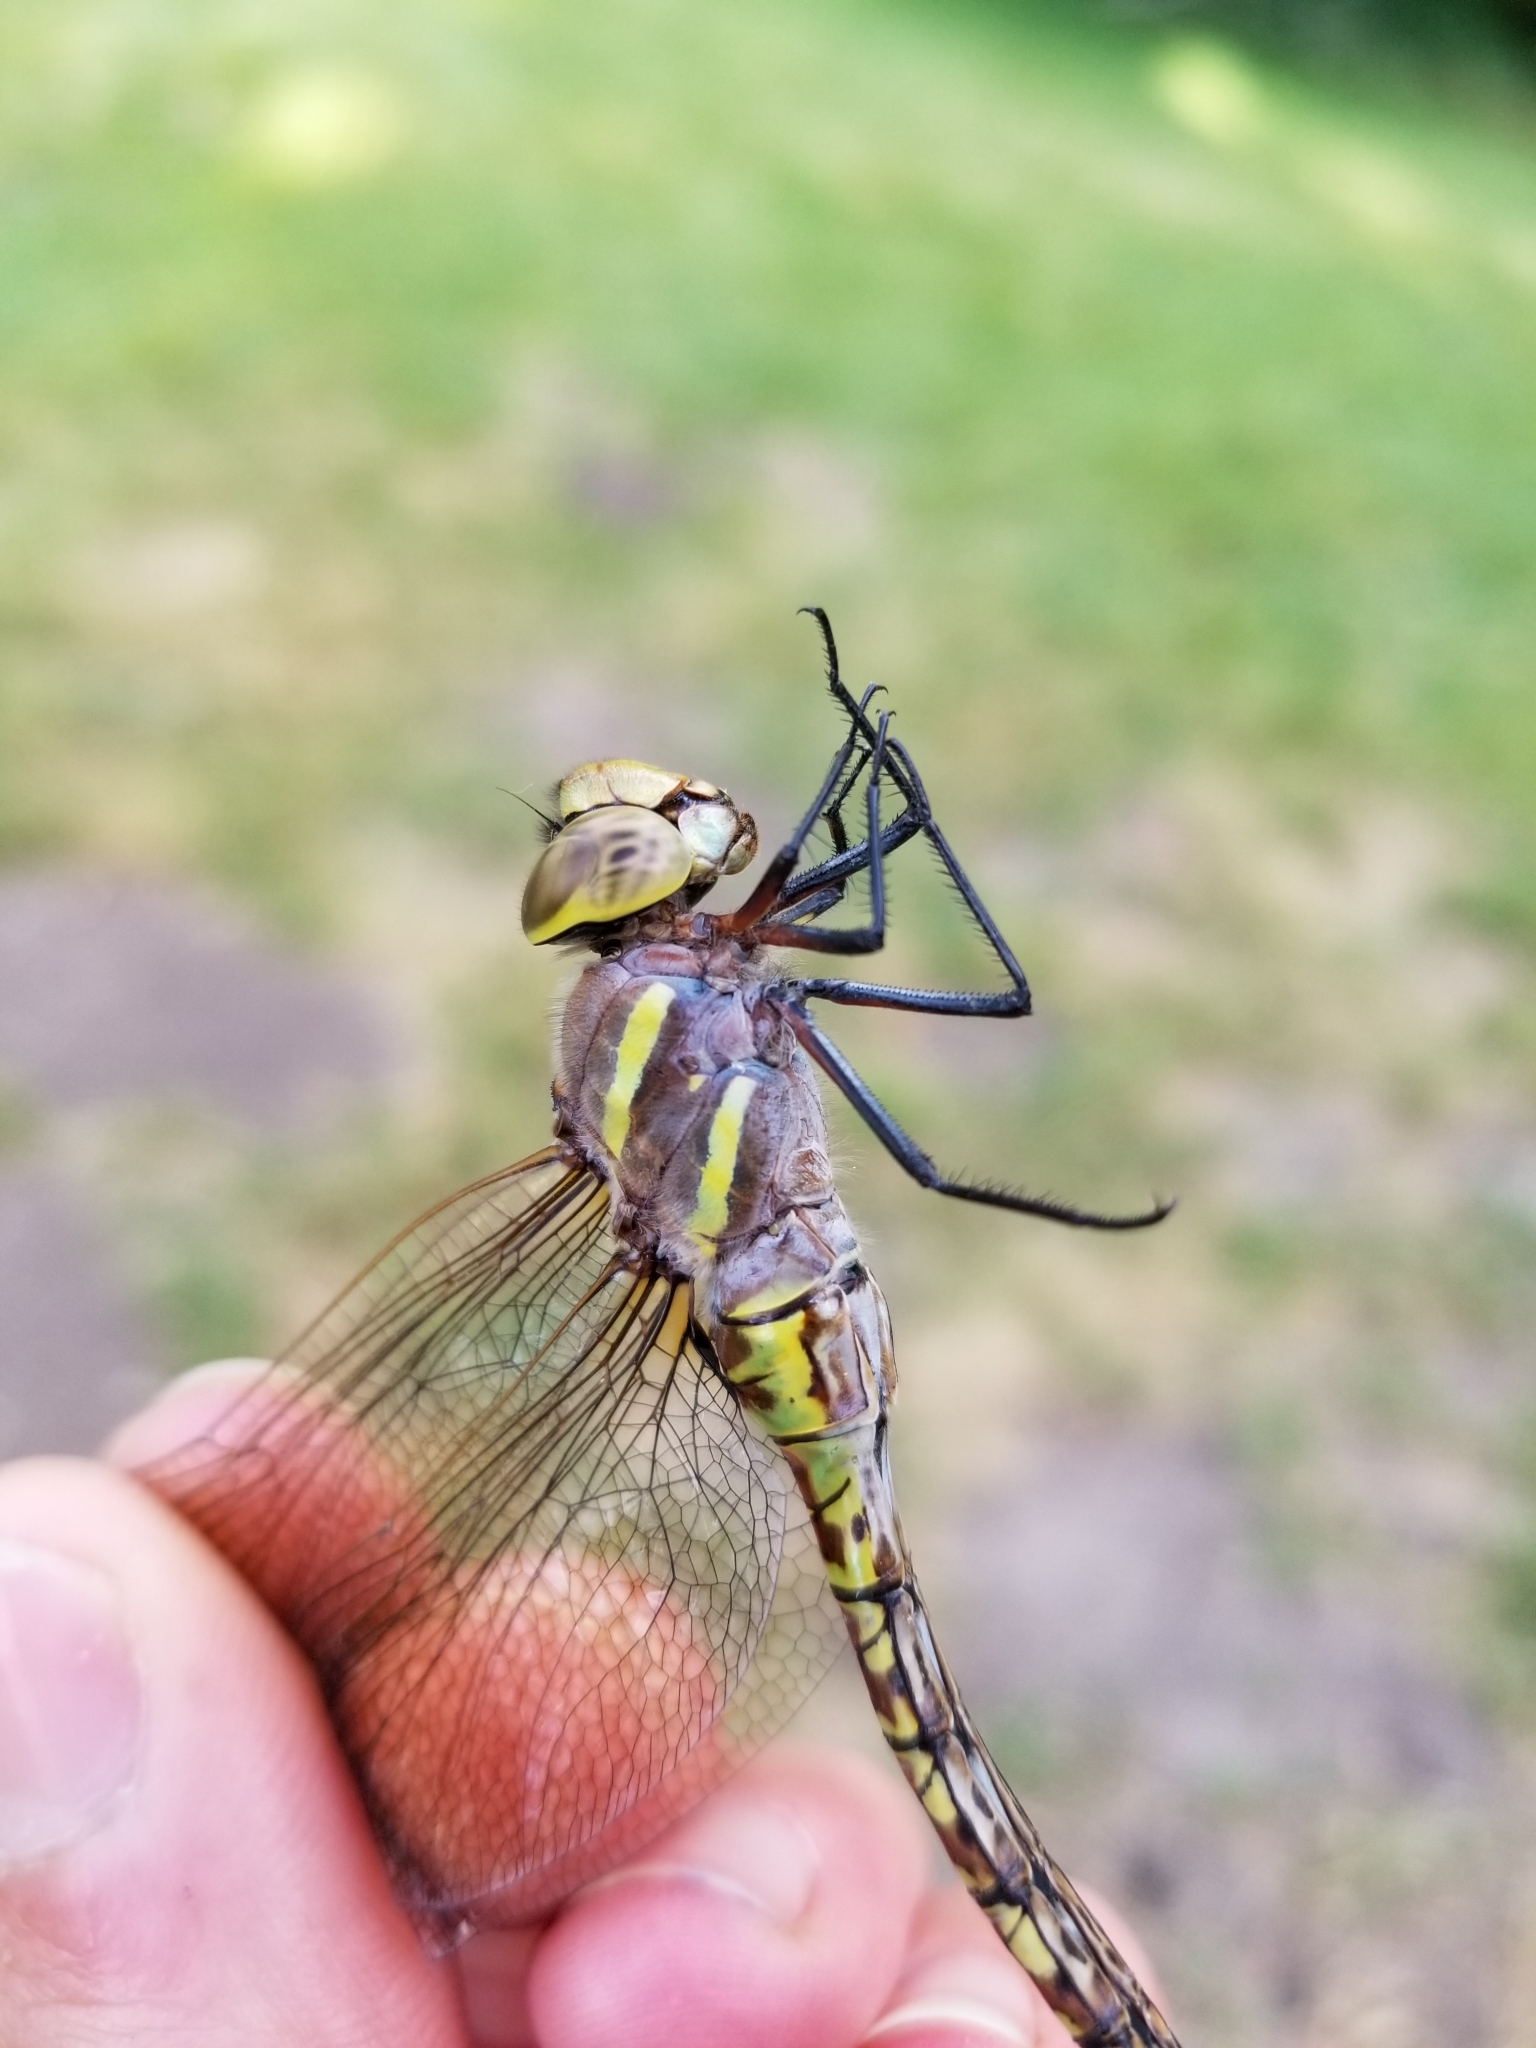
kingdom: Animalia
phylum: Arthropoda
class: Insecta
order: Odonata
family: Aeshnidae
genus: Rhionaeschna
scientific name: Rhionaeschna multicolor
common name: Blue-eyed darner
